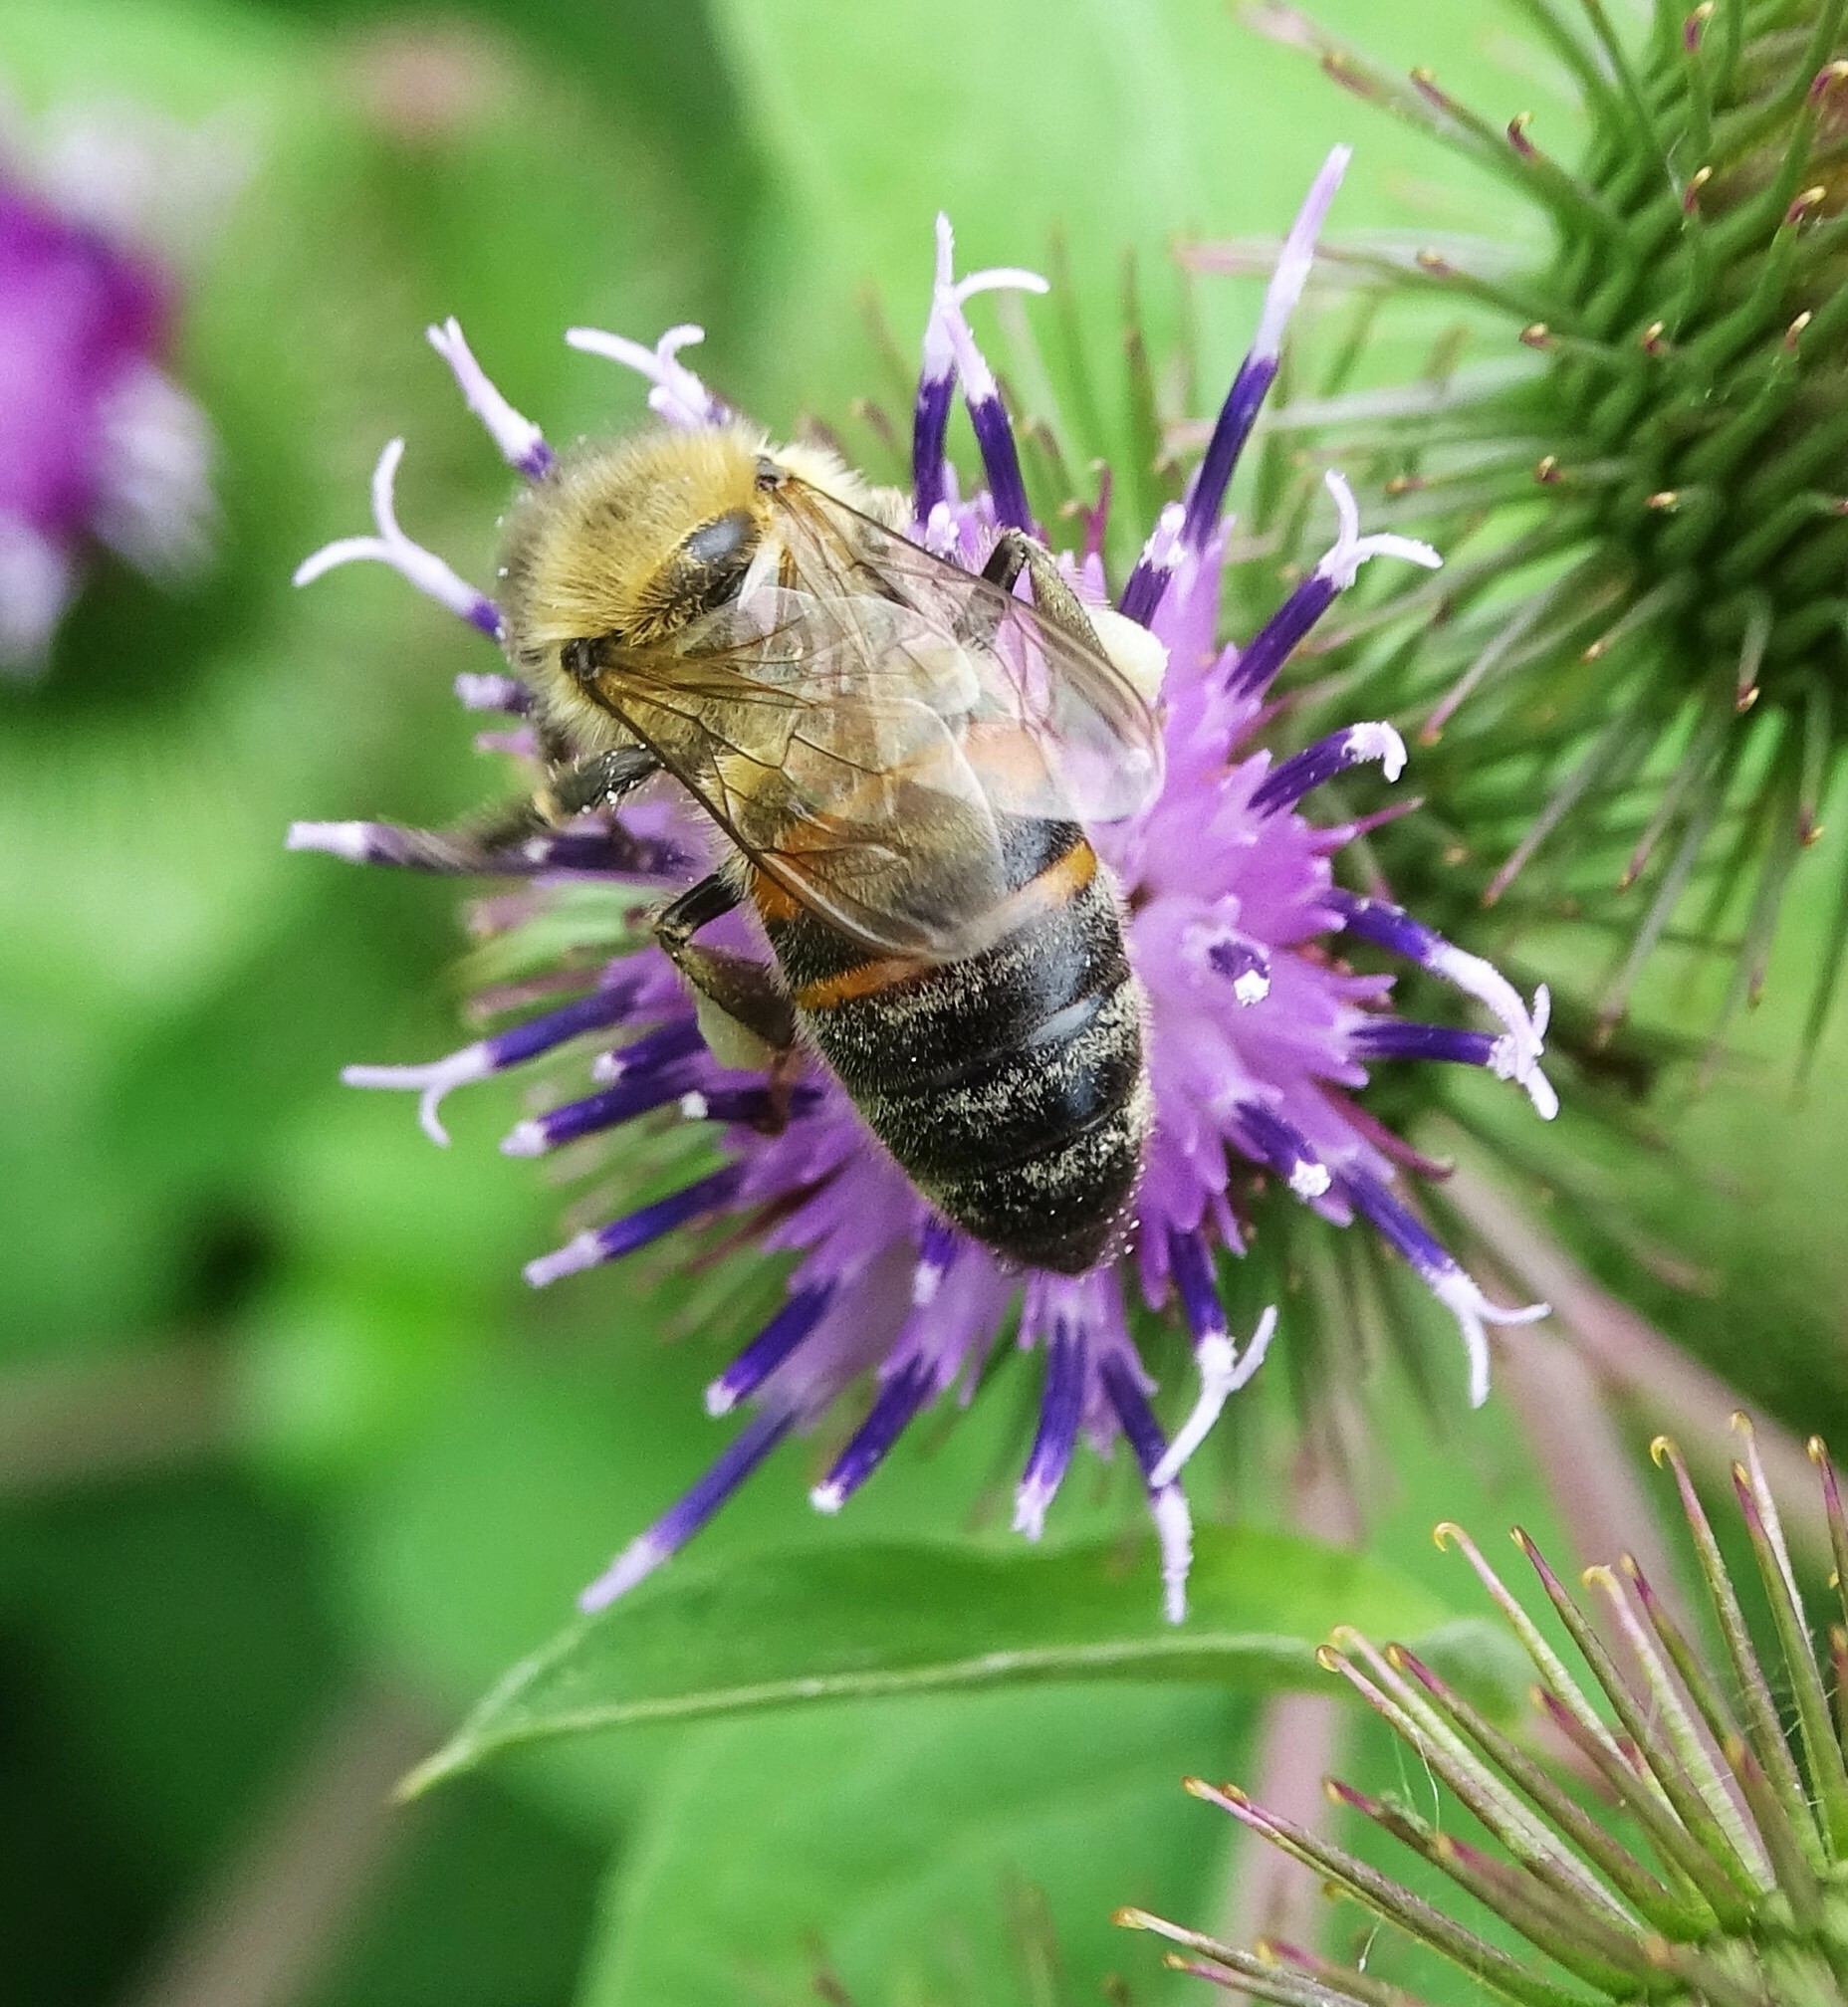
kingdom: Animalia
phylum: Arthropoda
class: Insecta
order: Hymenoptera
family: Apidae
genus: Apis
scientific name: Apis mellifera
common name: Honey bee
